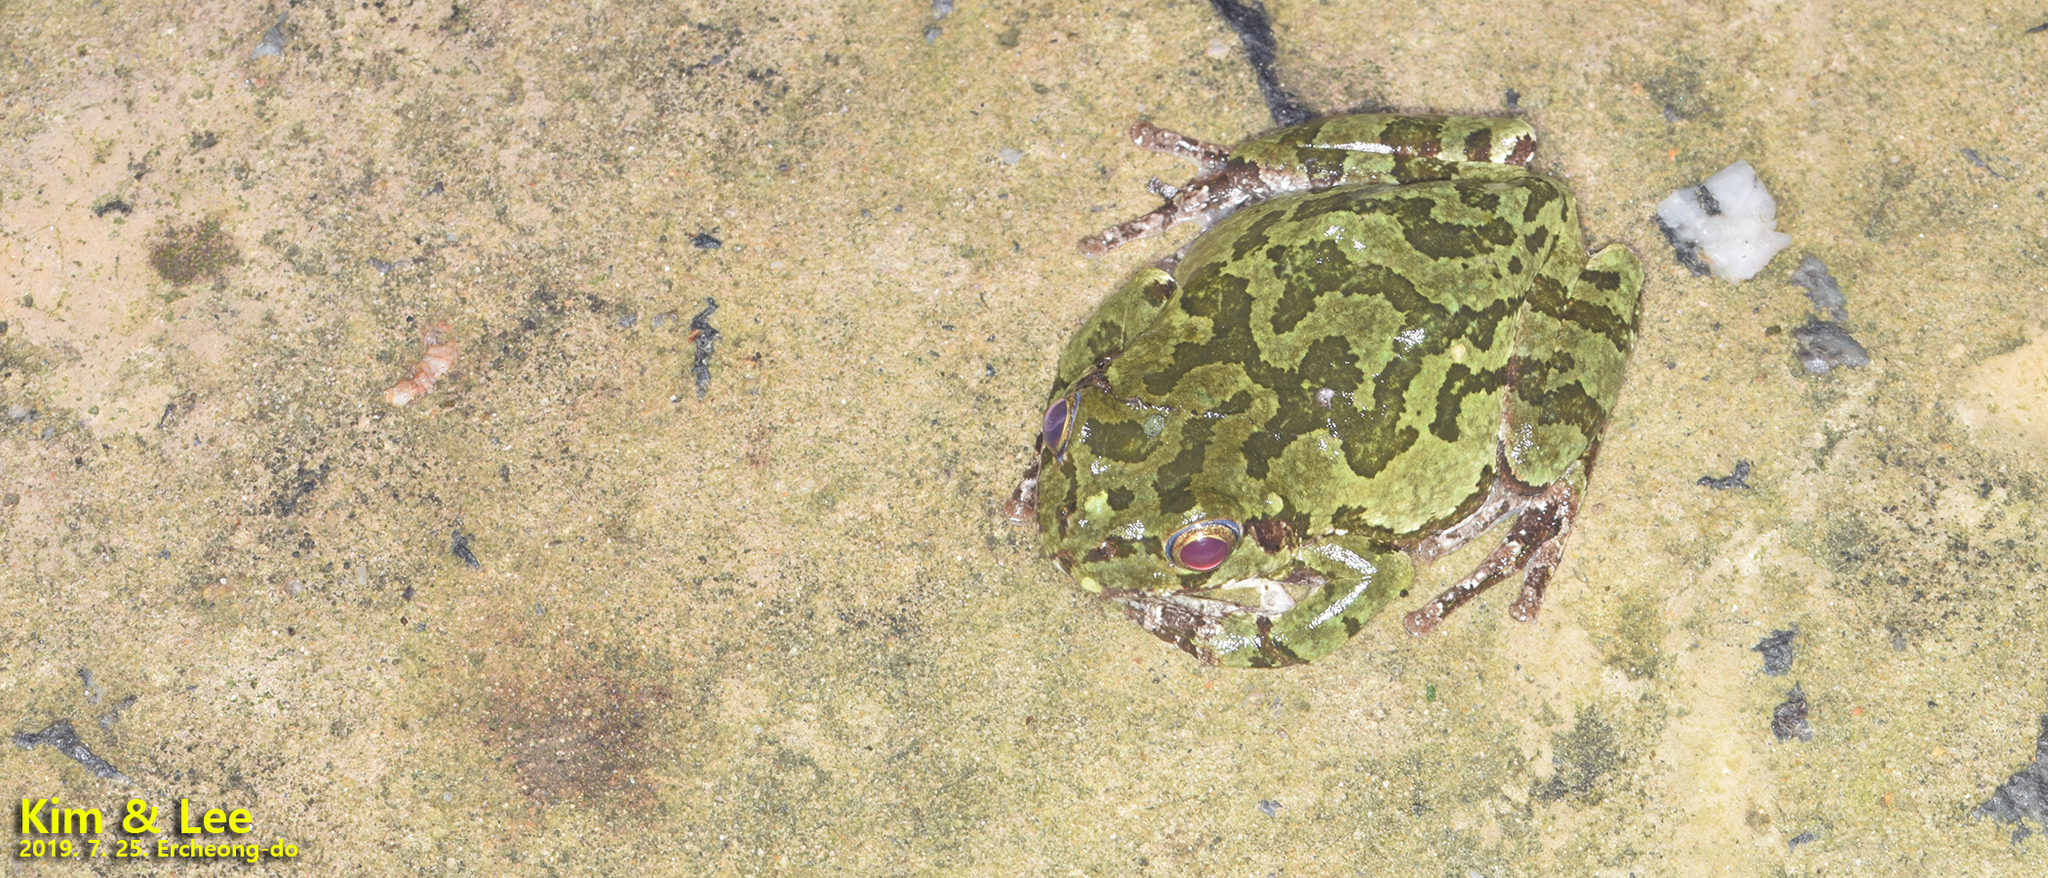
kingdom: Animalia
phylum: Chordata
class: Amphibia
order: Anura
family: Hylidae
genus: Dryophytes
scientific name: Dryophytes japonicus
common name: Japanese treefrog
